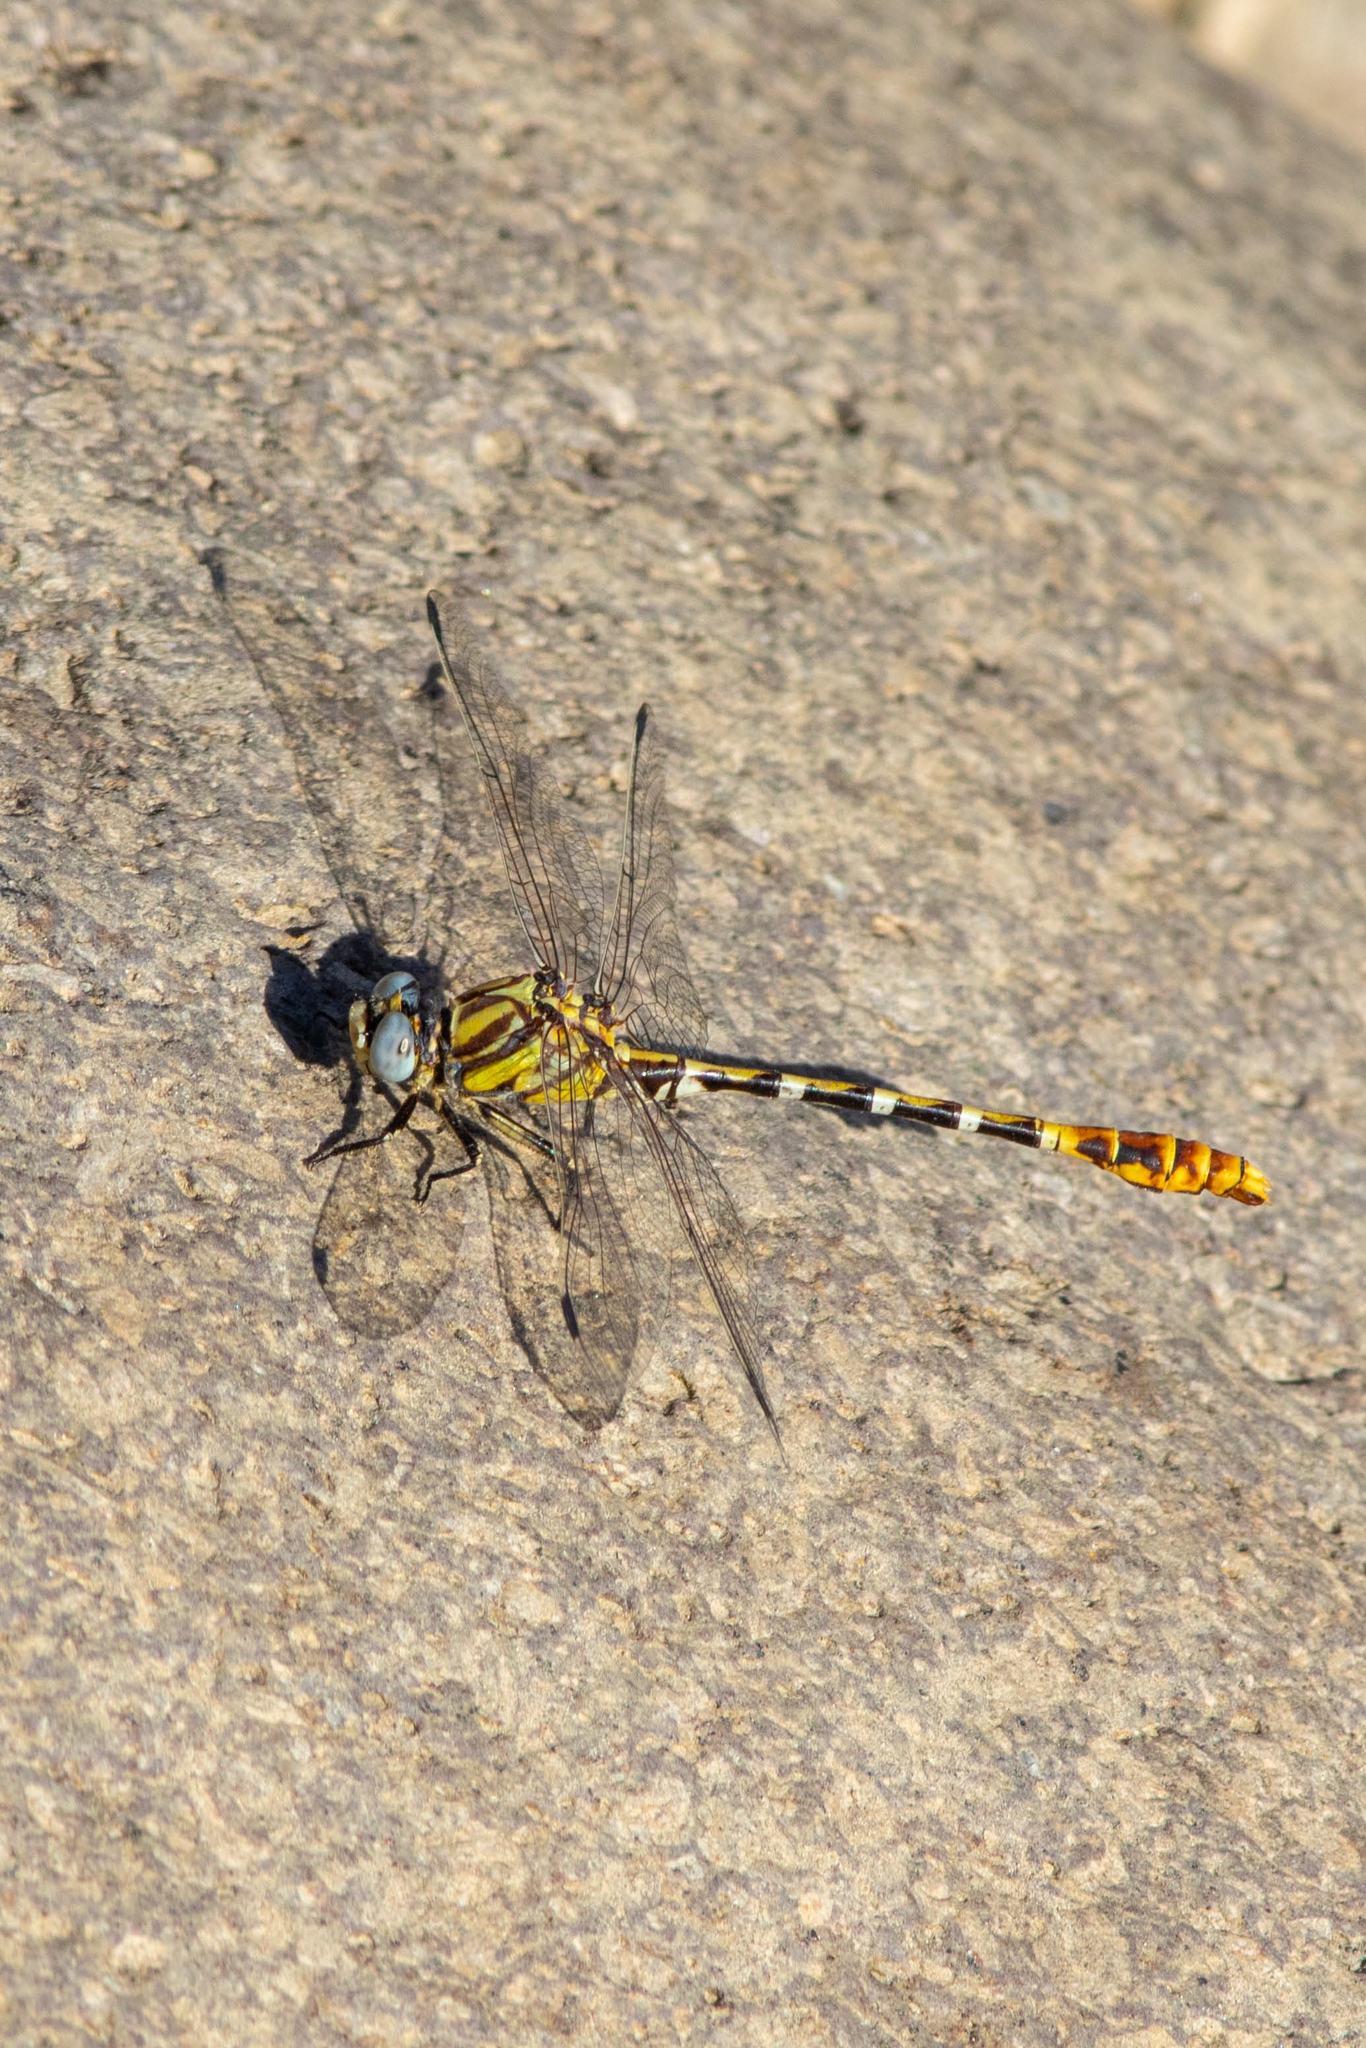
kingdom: Animalia
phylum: Arthropoda
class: Insecta
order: Odonata
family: Gomphidae
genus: Erpetogomphus
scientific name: Erpetogomphus designatus
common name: Eastern ringtail
